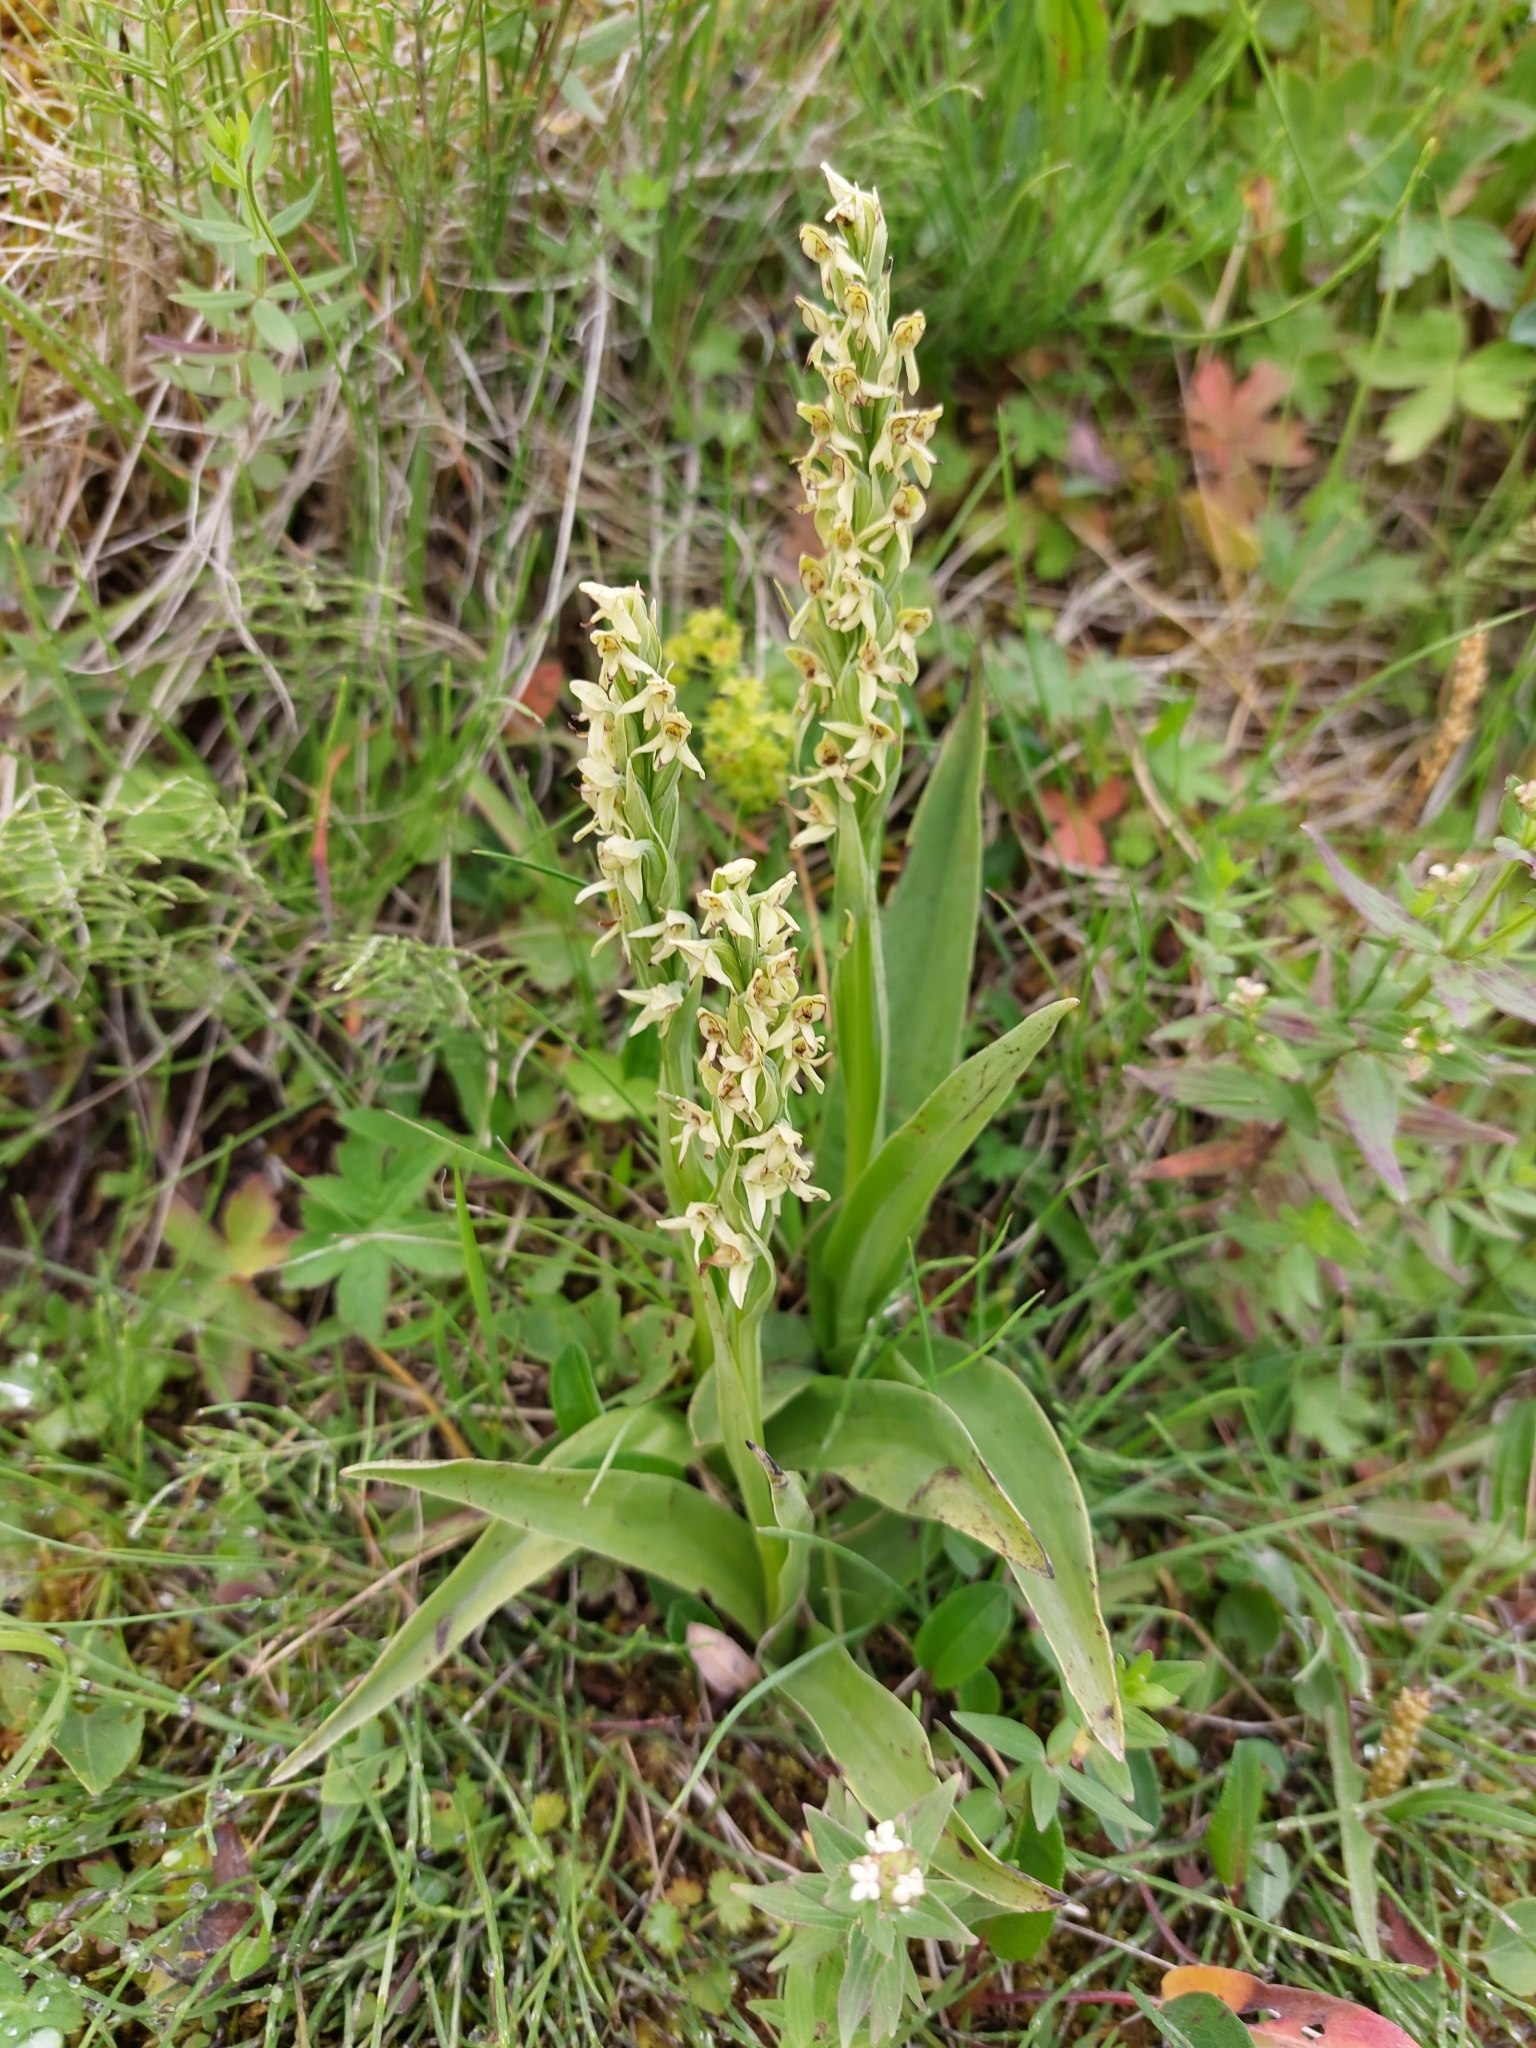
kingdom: Plantae
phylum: Tracheophyta
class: Liliopsida
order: Asparagales
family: Orchidaceae
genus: Platanthera
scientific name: Platanthera hyperborea
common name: Northern green orchid
